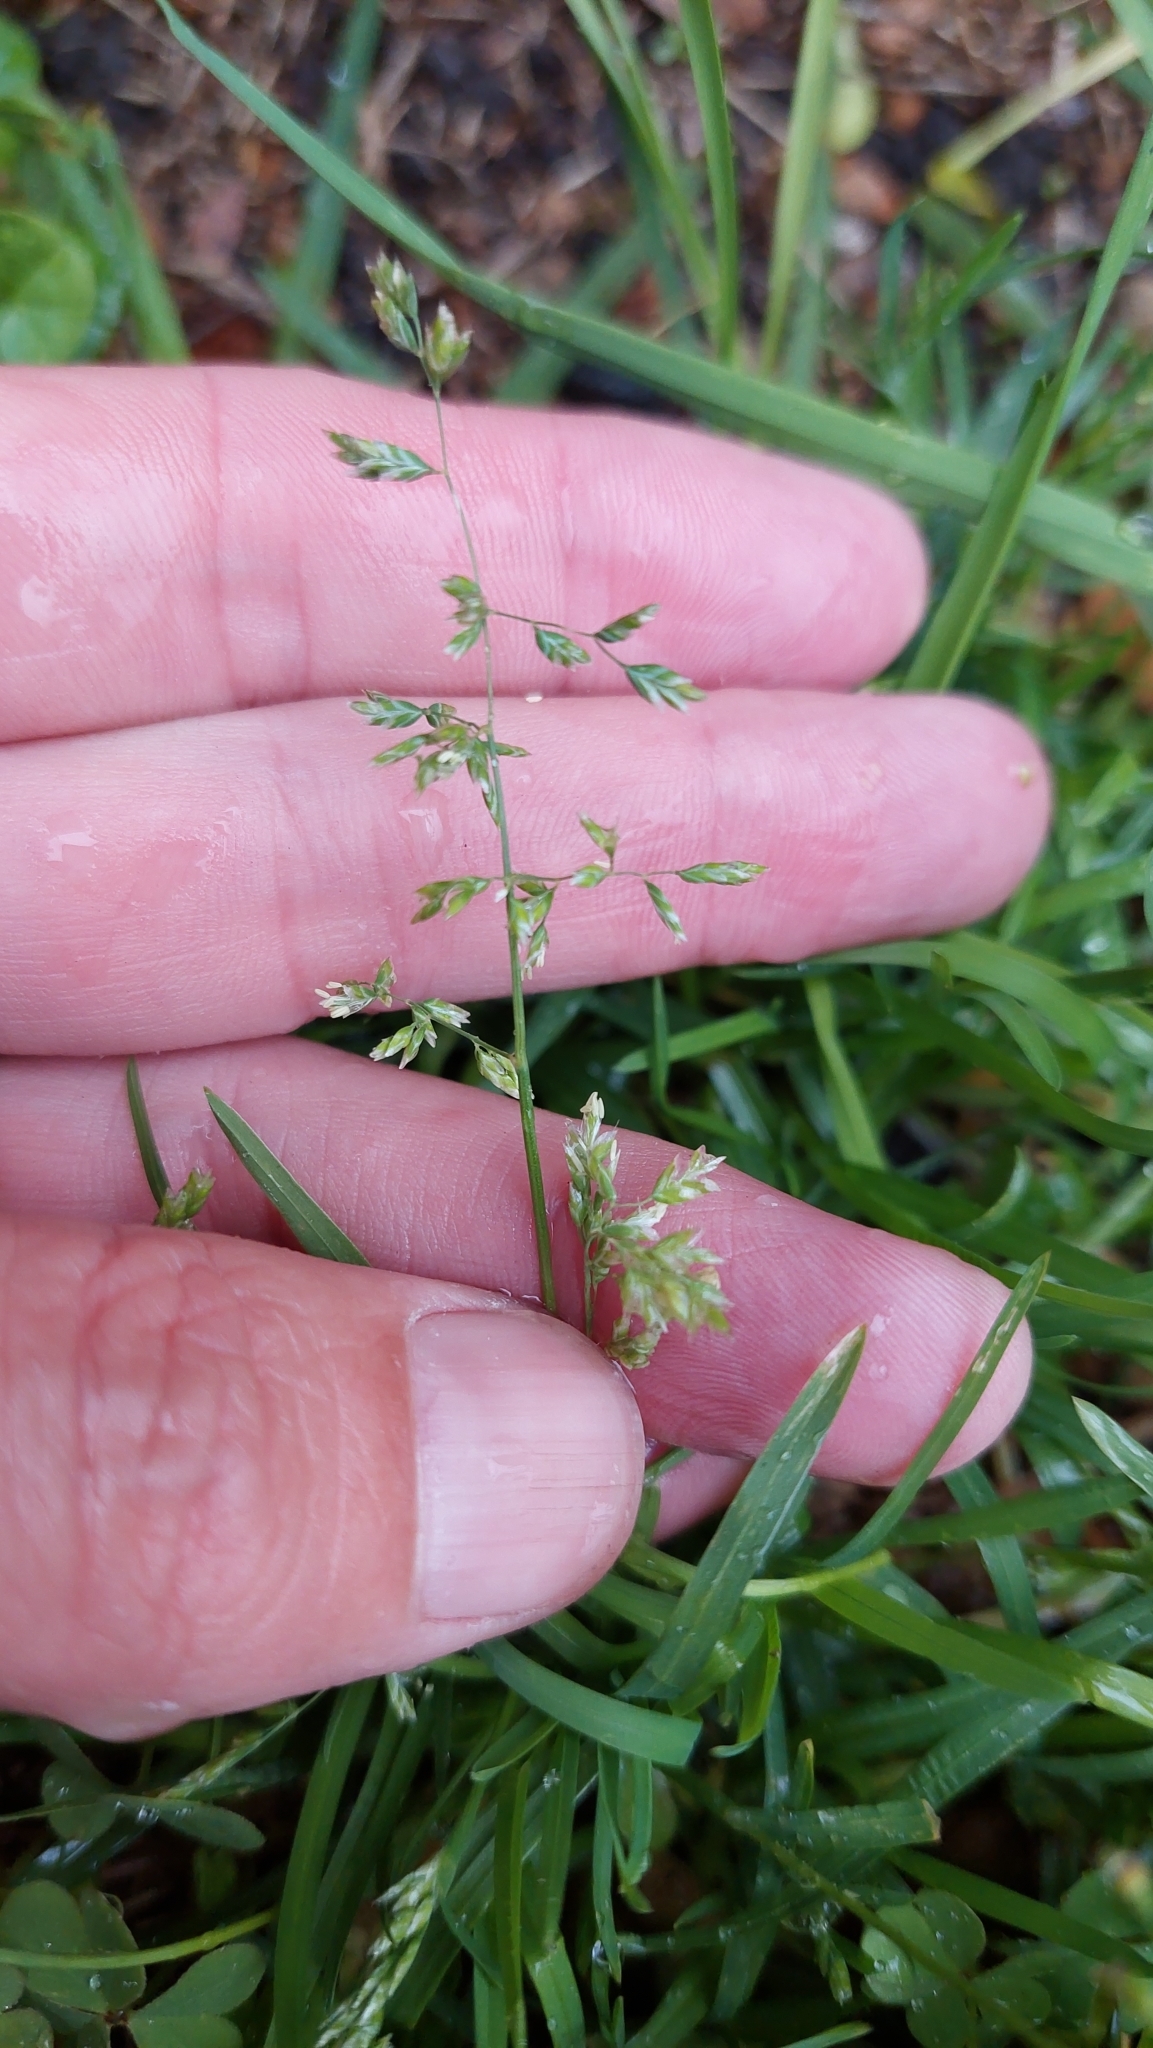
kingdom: Plantae
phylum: Tracheophyta
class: Liliopsida
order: Poales
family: Poaceae
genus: Poa
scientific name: Poa annua
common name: Annual bluegrass
